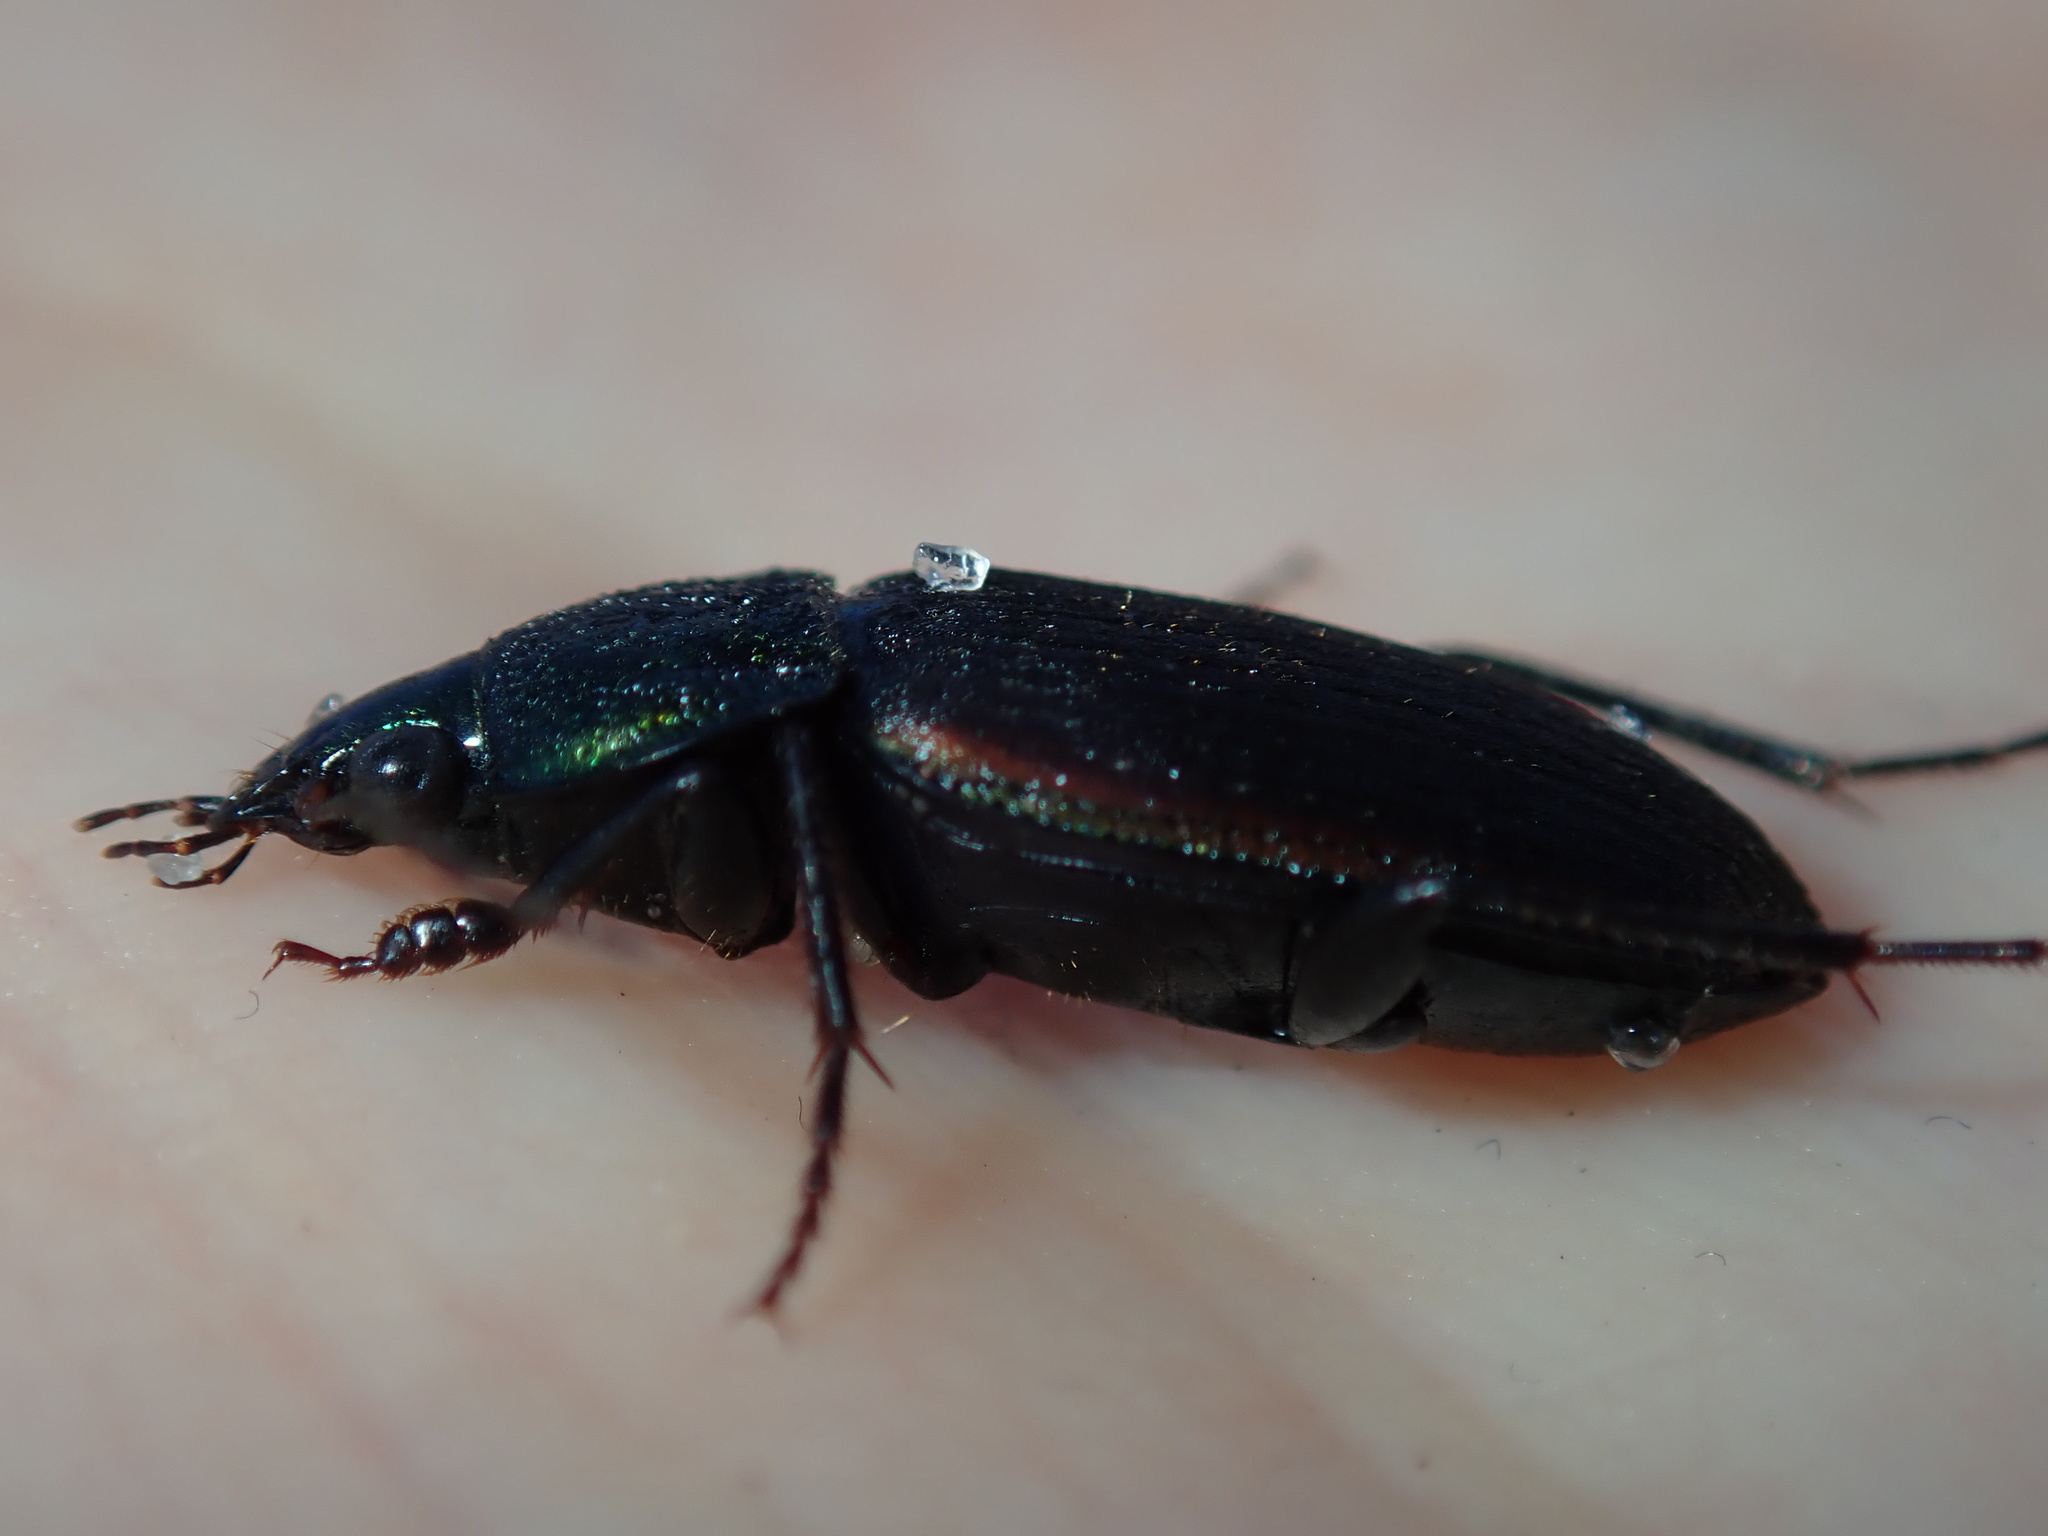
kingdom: Animalia
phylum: Arthropoda
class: Insecta
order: Coleoptera
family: Carabidae
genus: Chlaenius
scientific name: Chlaenius australis
